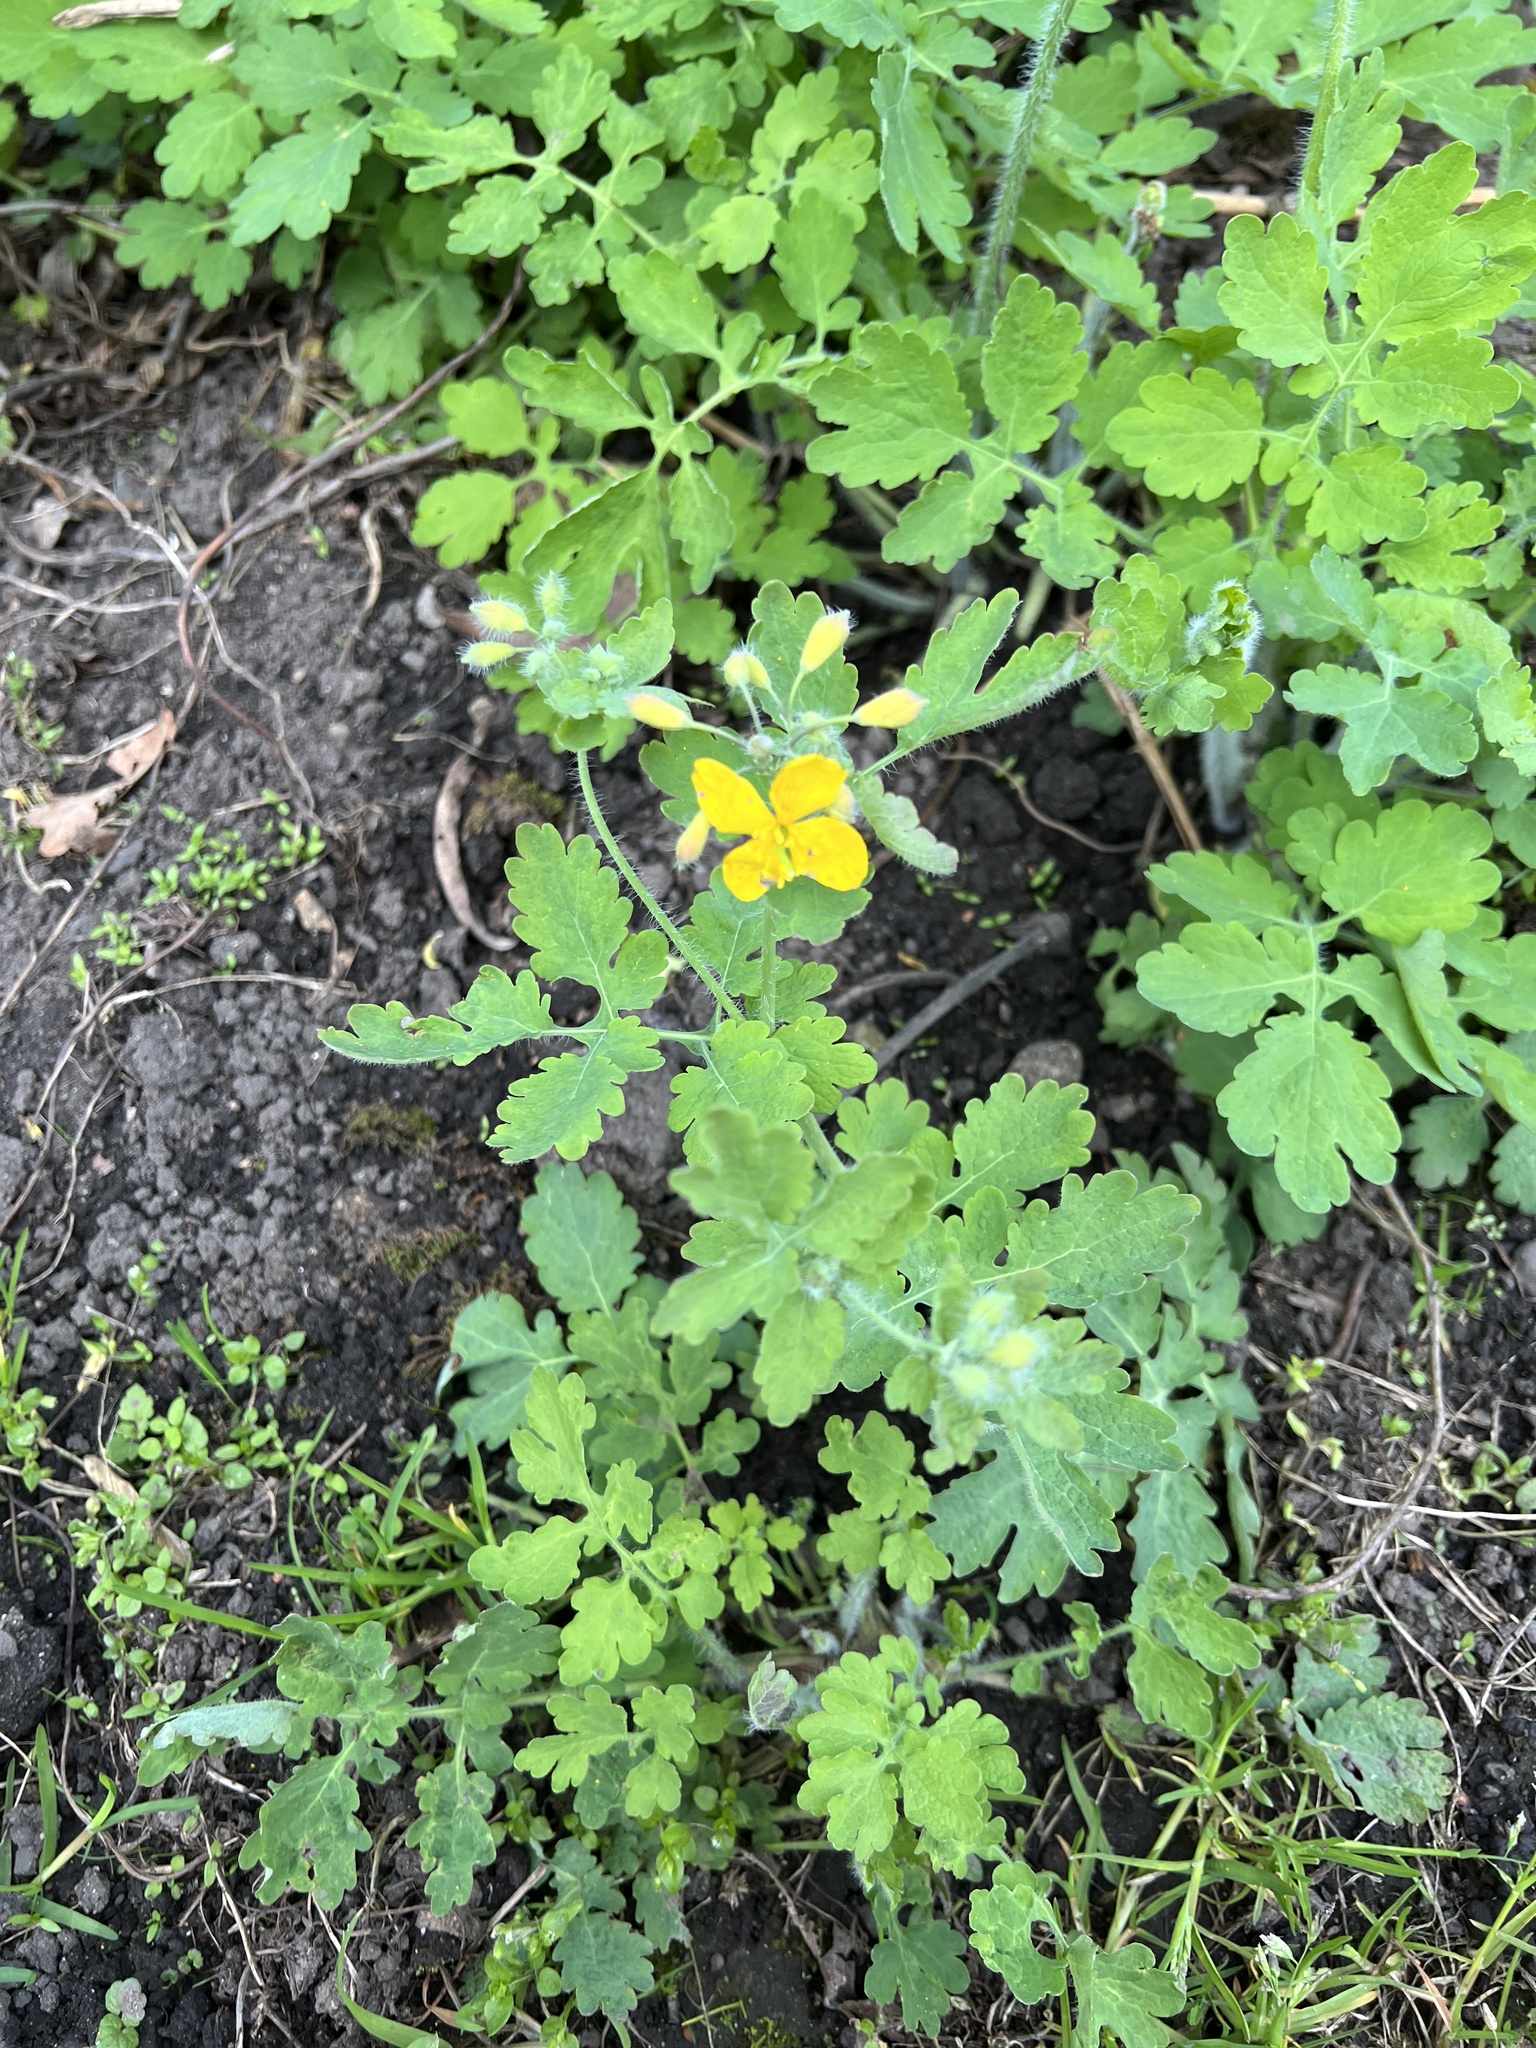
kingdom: Plantae
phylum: Tracheophyta
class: Magnoliopsida
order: Ranunculales
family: Papaveraceae
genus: Chelidonium
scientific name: Chelidonium majus
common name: Greater celandine
